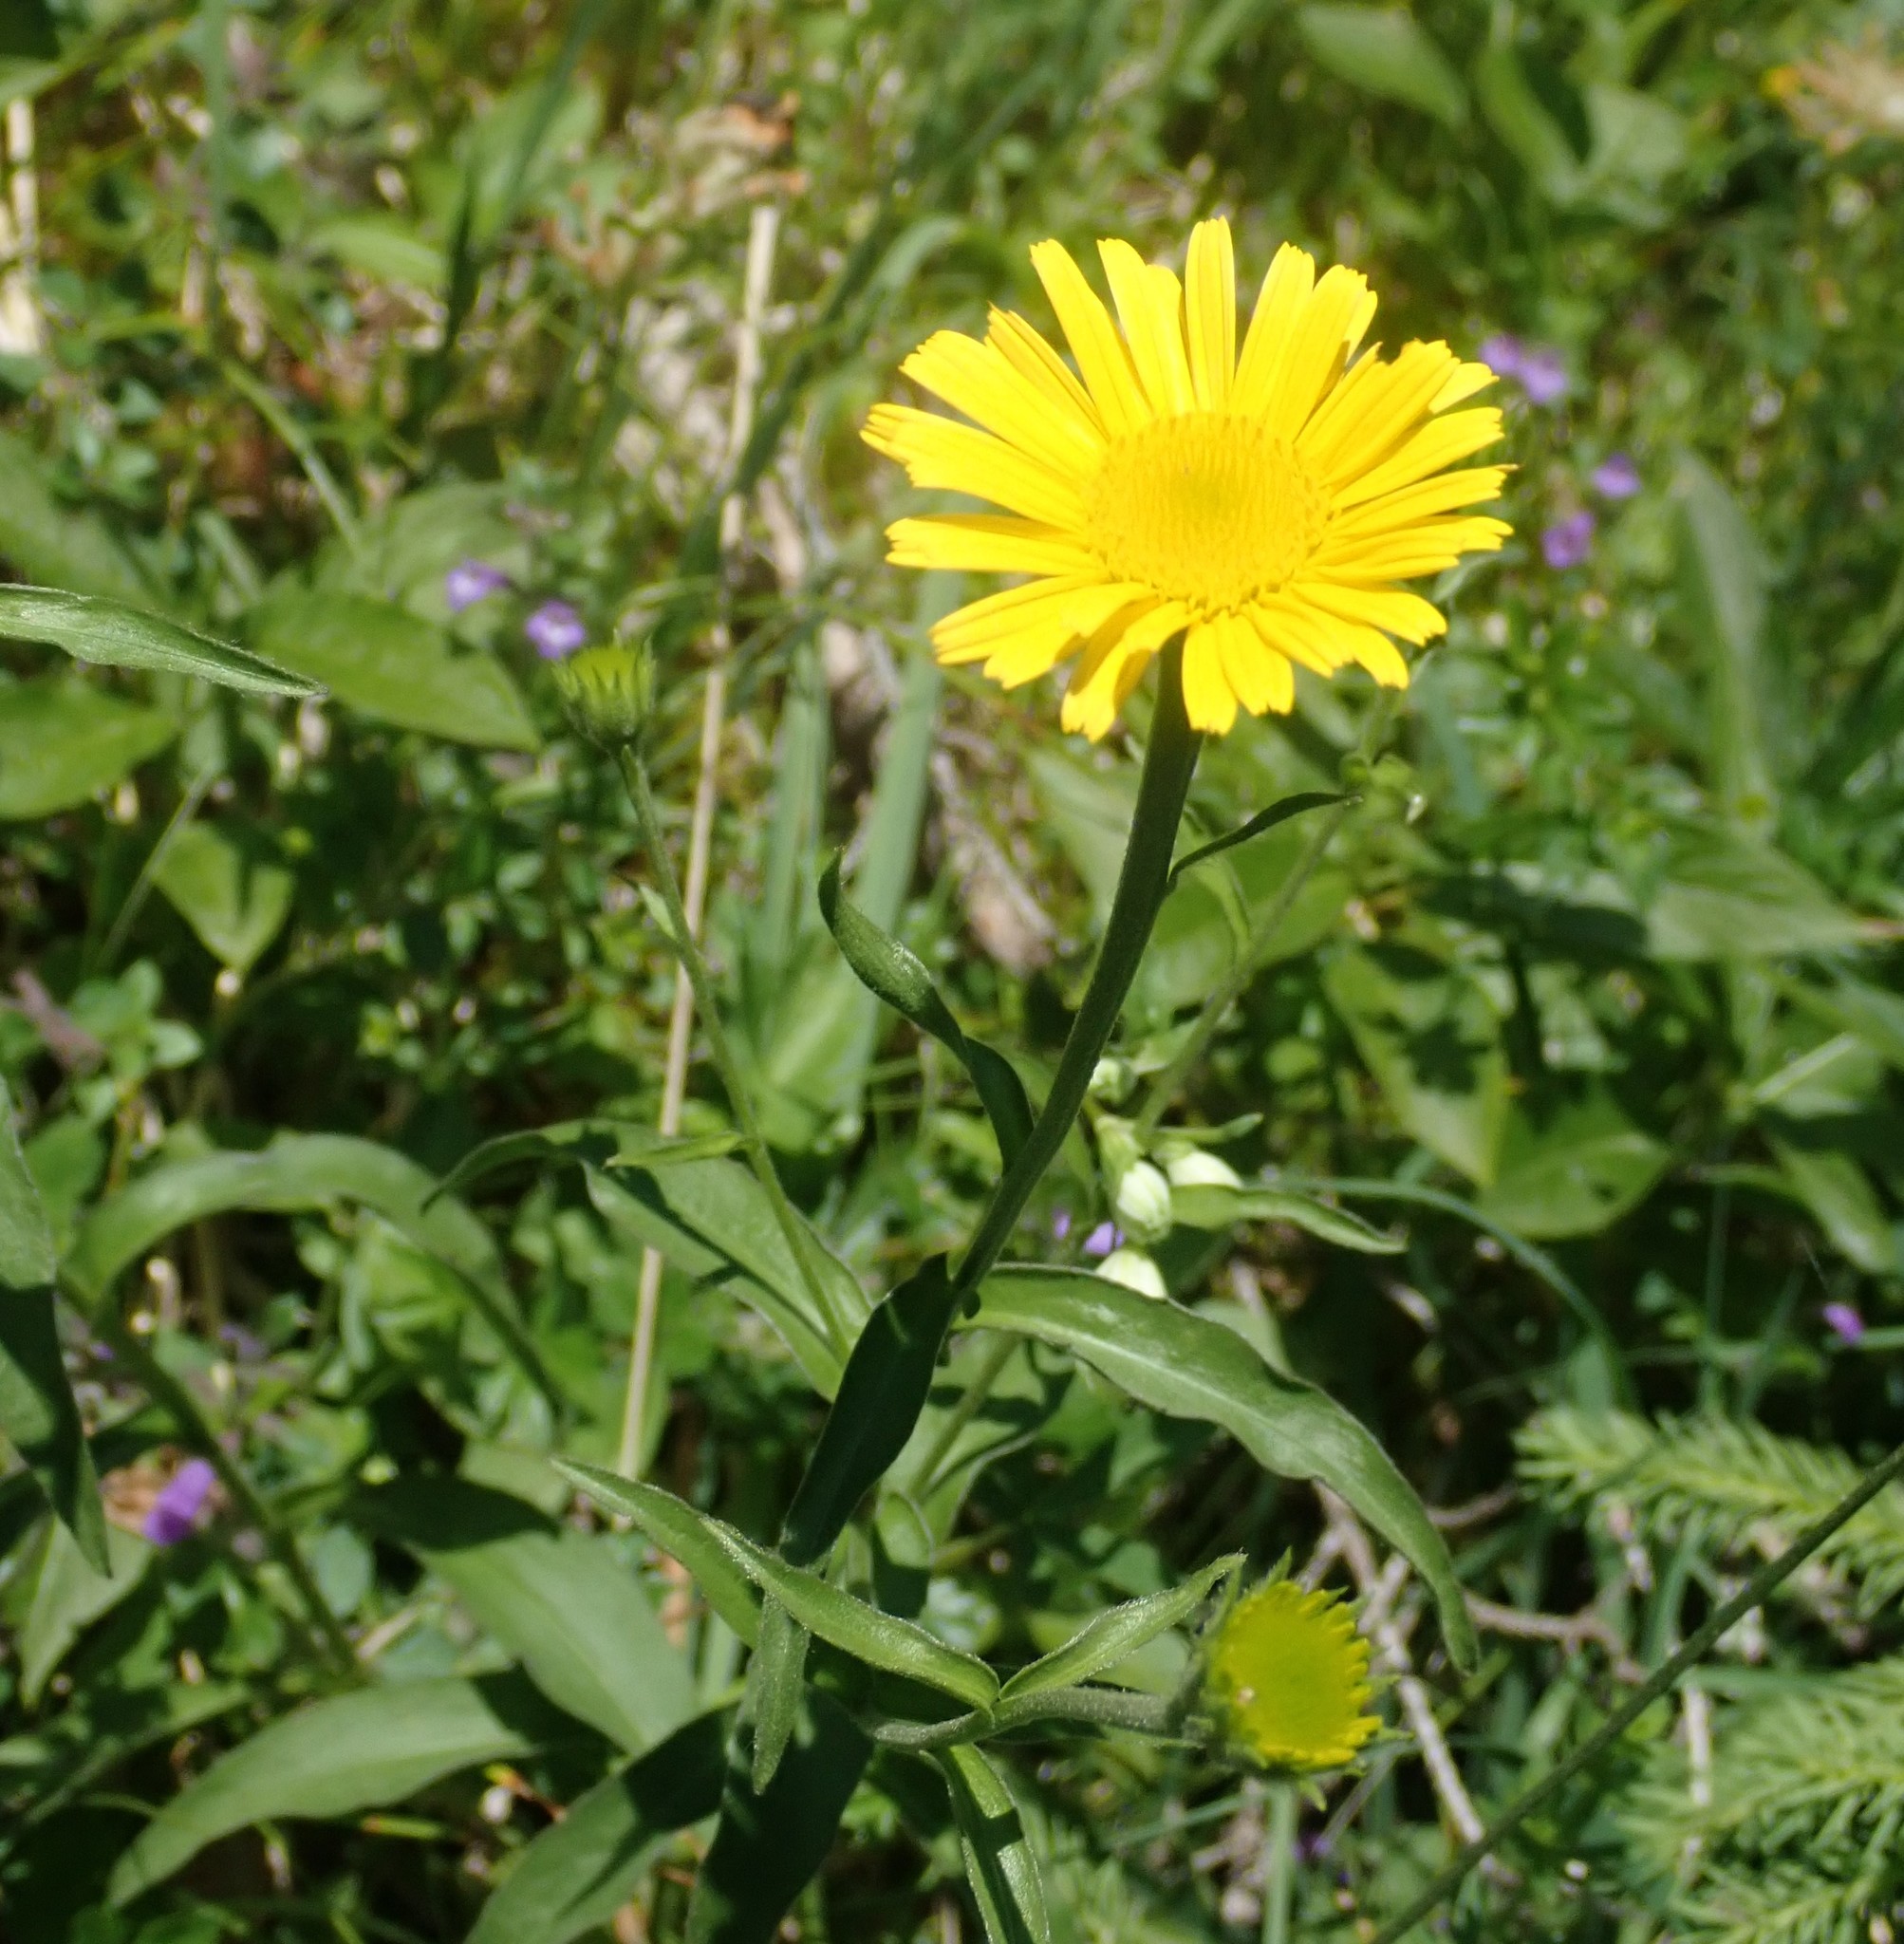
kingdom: Plantae
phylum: Tracheophyta
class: Magnoliopsida
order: Asterales
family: Asteraceae
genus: Buphthalmum
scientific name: Buphthalmum salicifolium
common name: Willow-leaved yellow-oxeye
